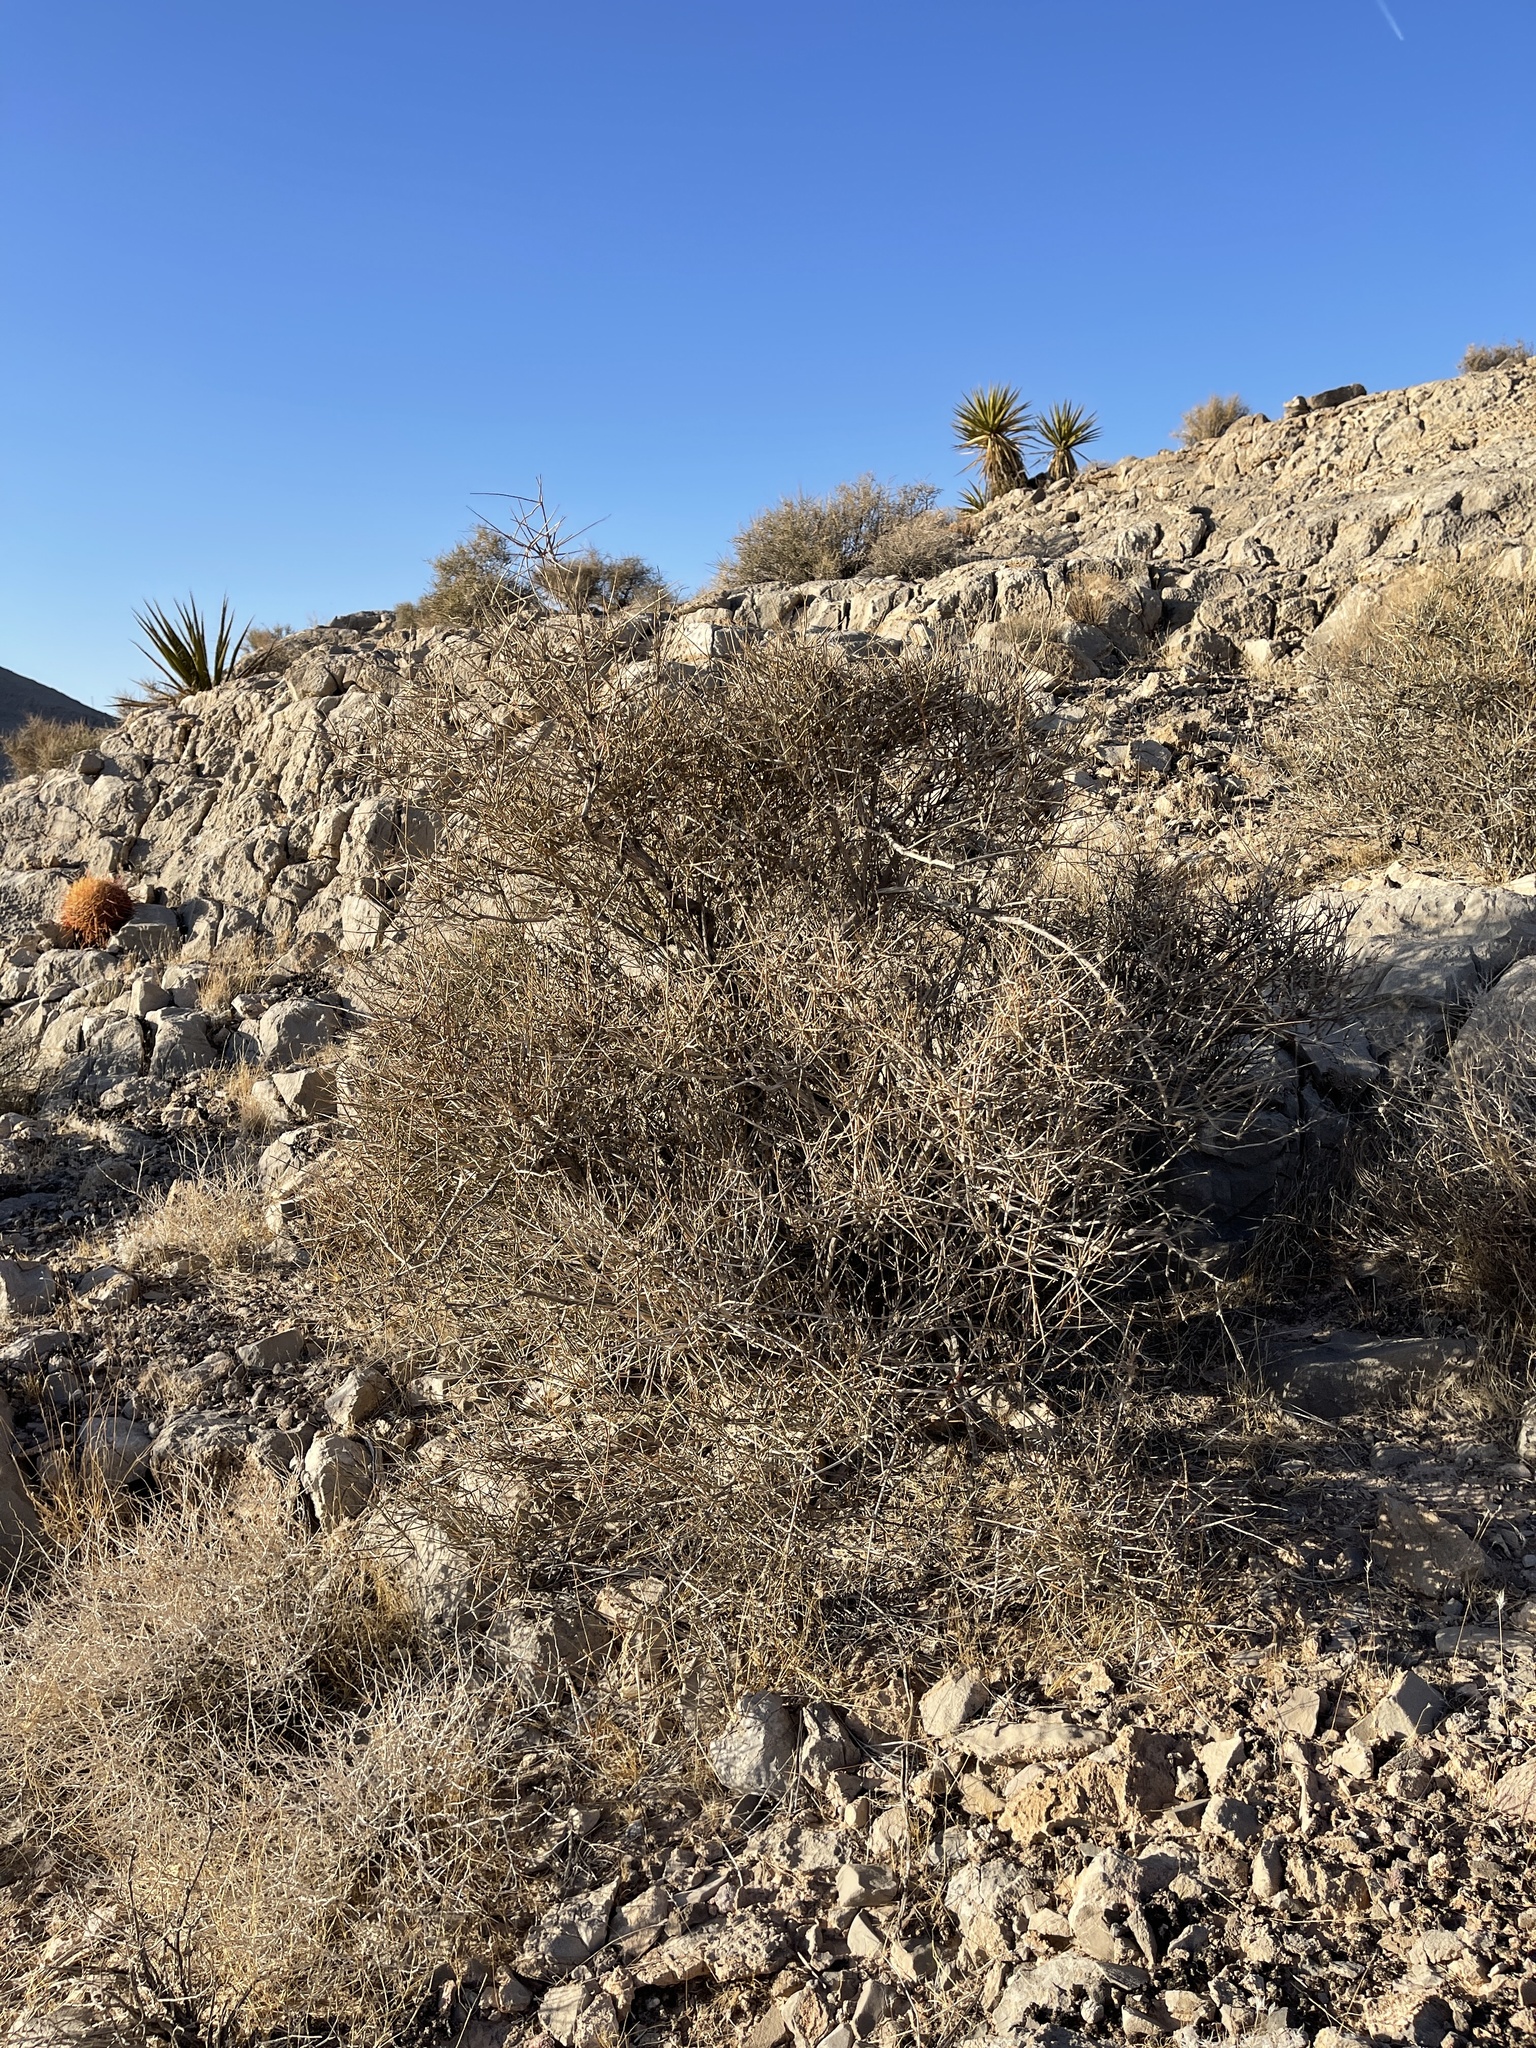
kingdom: Plantae
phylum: Tracheophyta
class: Gnetopsida
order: Ephedrales
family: Ephedraceae
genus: Ephedra
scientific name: Ephedra nevadensis
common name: Gray ephedra
